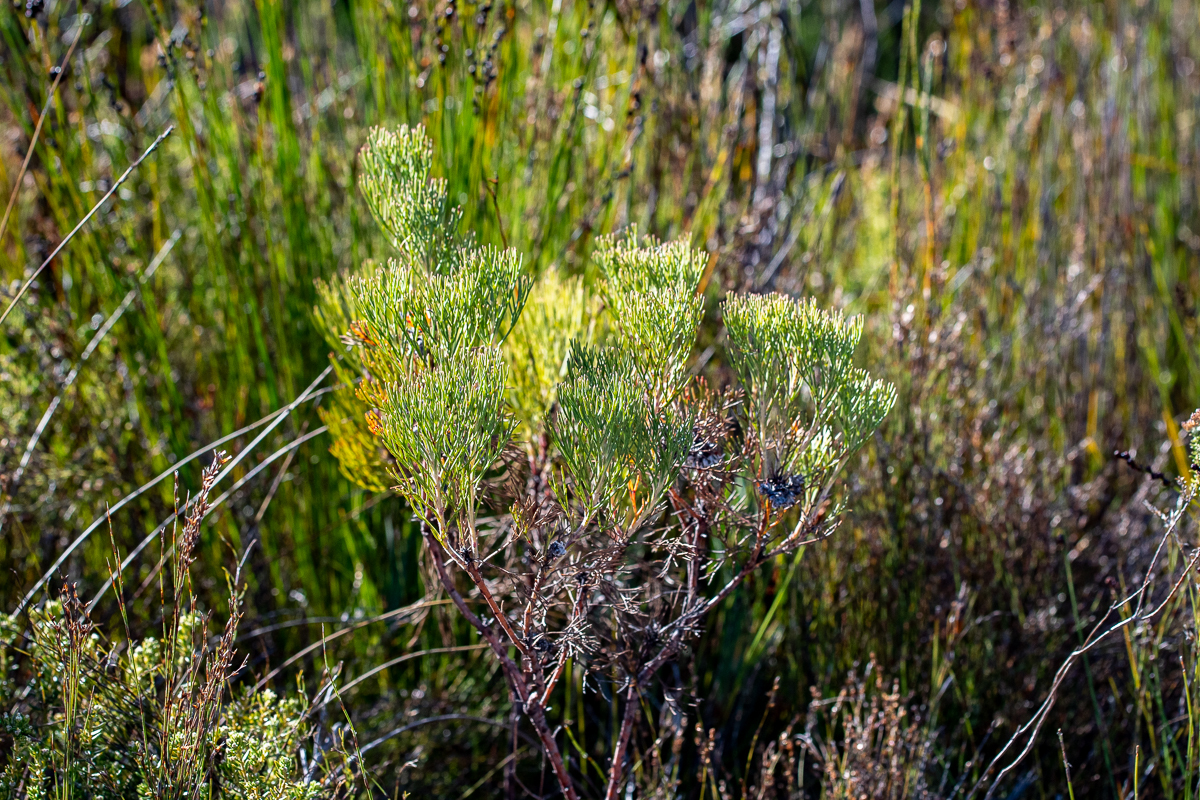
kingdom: Plantae
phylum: Tracheophyta
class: Magnoliopsida
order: Proteales
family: Proteaceae
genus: Serruria
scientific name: Serruria ascendens
